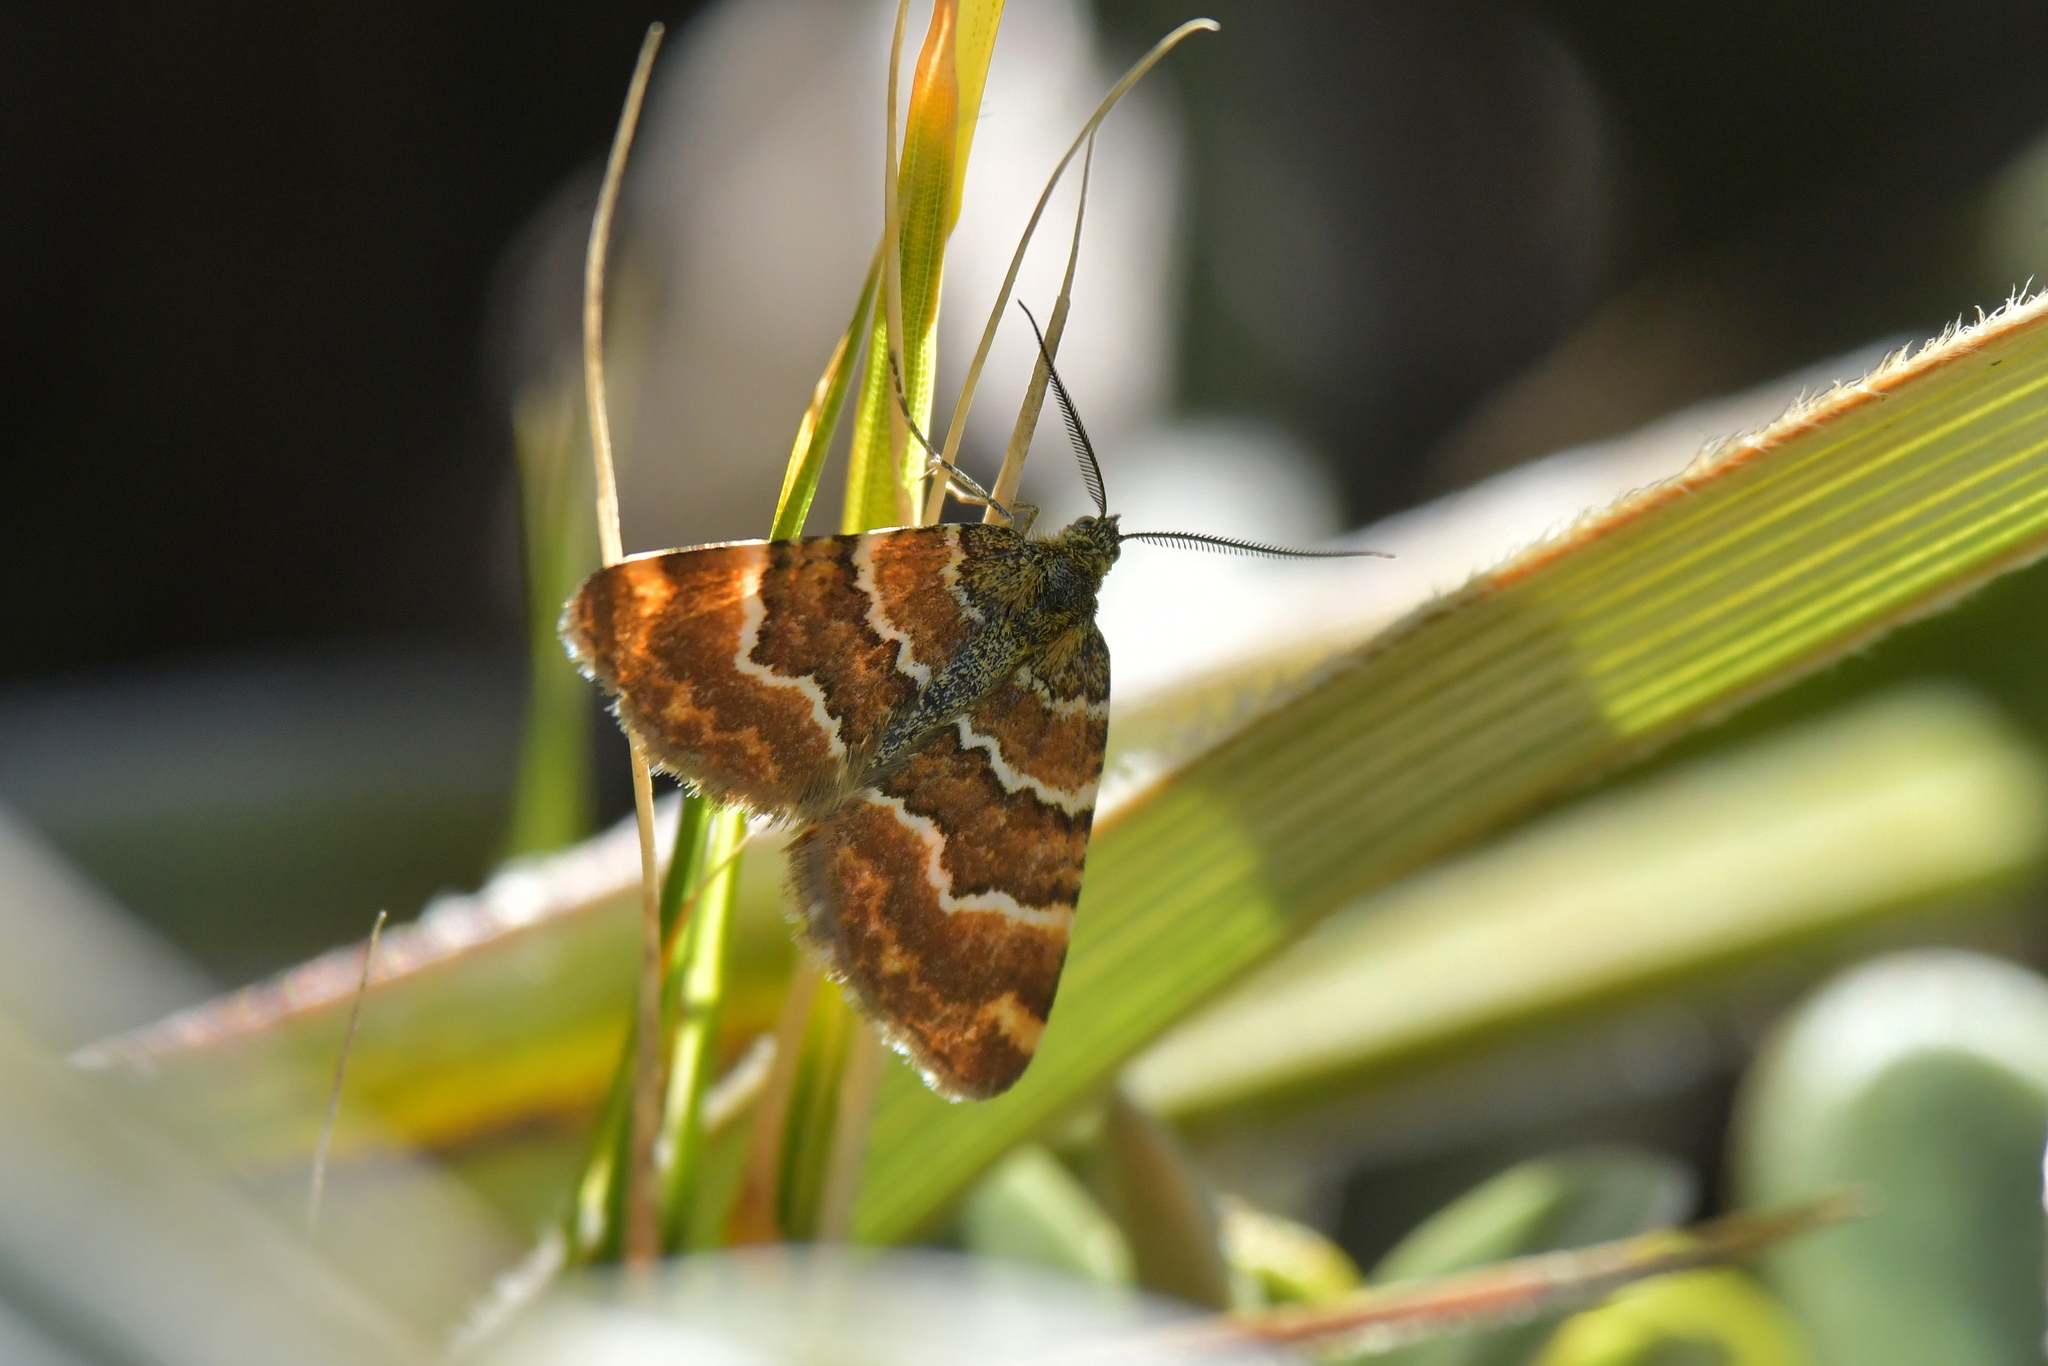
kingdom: Animalia
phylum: Arthropoda
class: Insecta
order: Lepidoptera
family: Geometridae
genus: Notoreas
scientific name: Notoreas niphocrena
